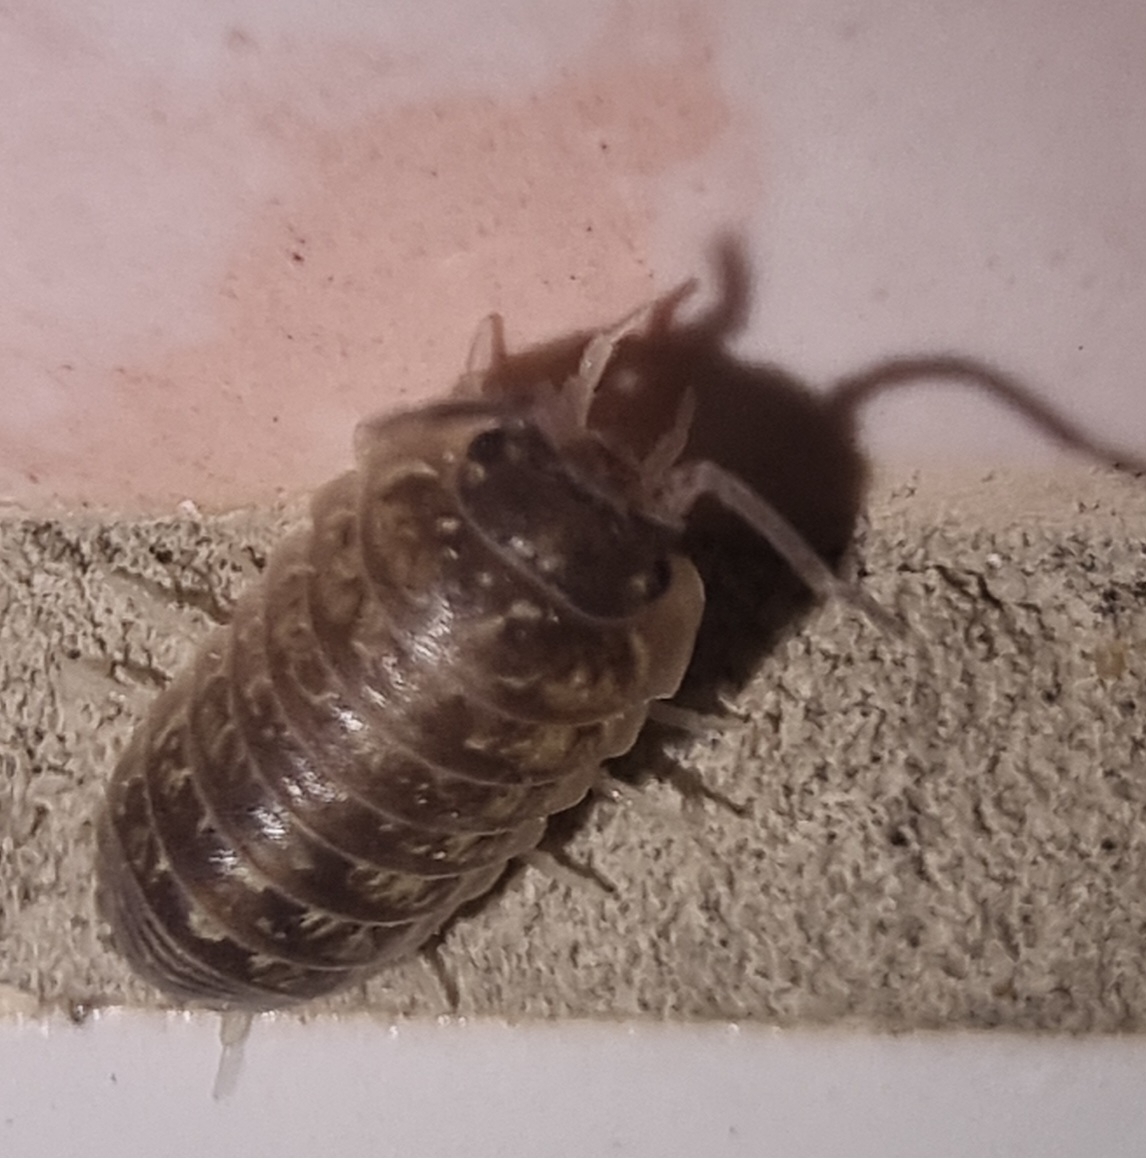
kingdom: Animalia
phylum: Arthropoda
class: Malacostraca
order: Isopoda
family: Armadillidiidae
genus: Armadillidium
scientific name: Armadillidium versicolor
